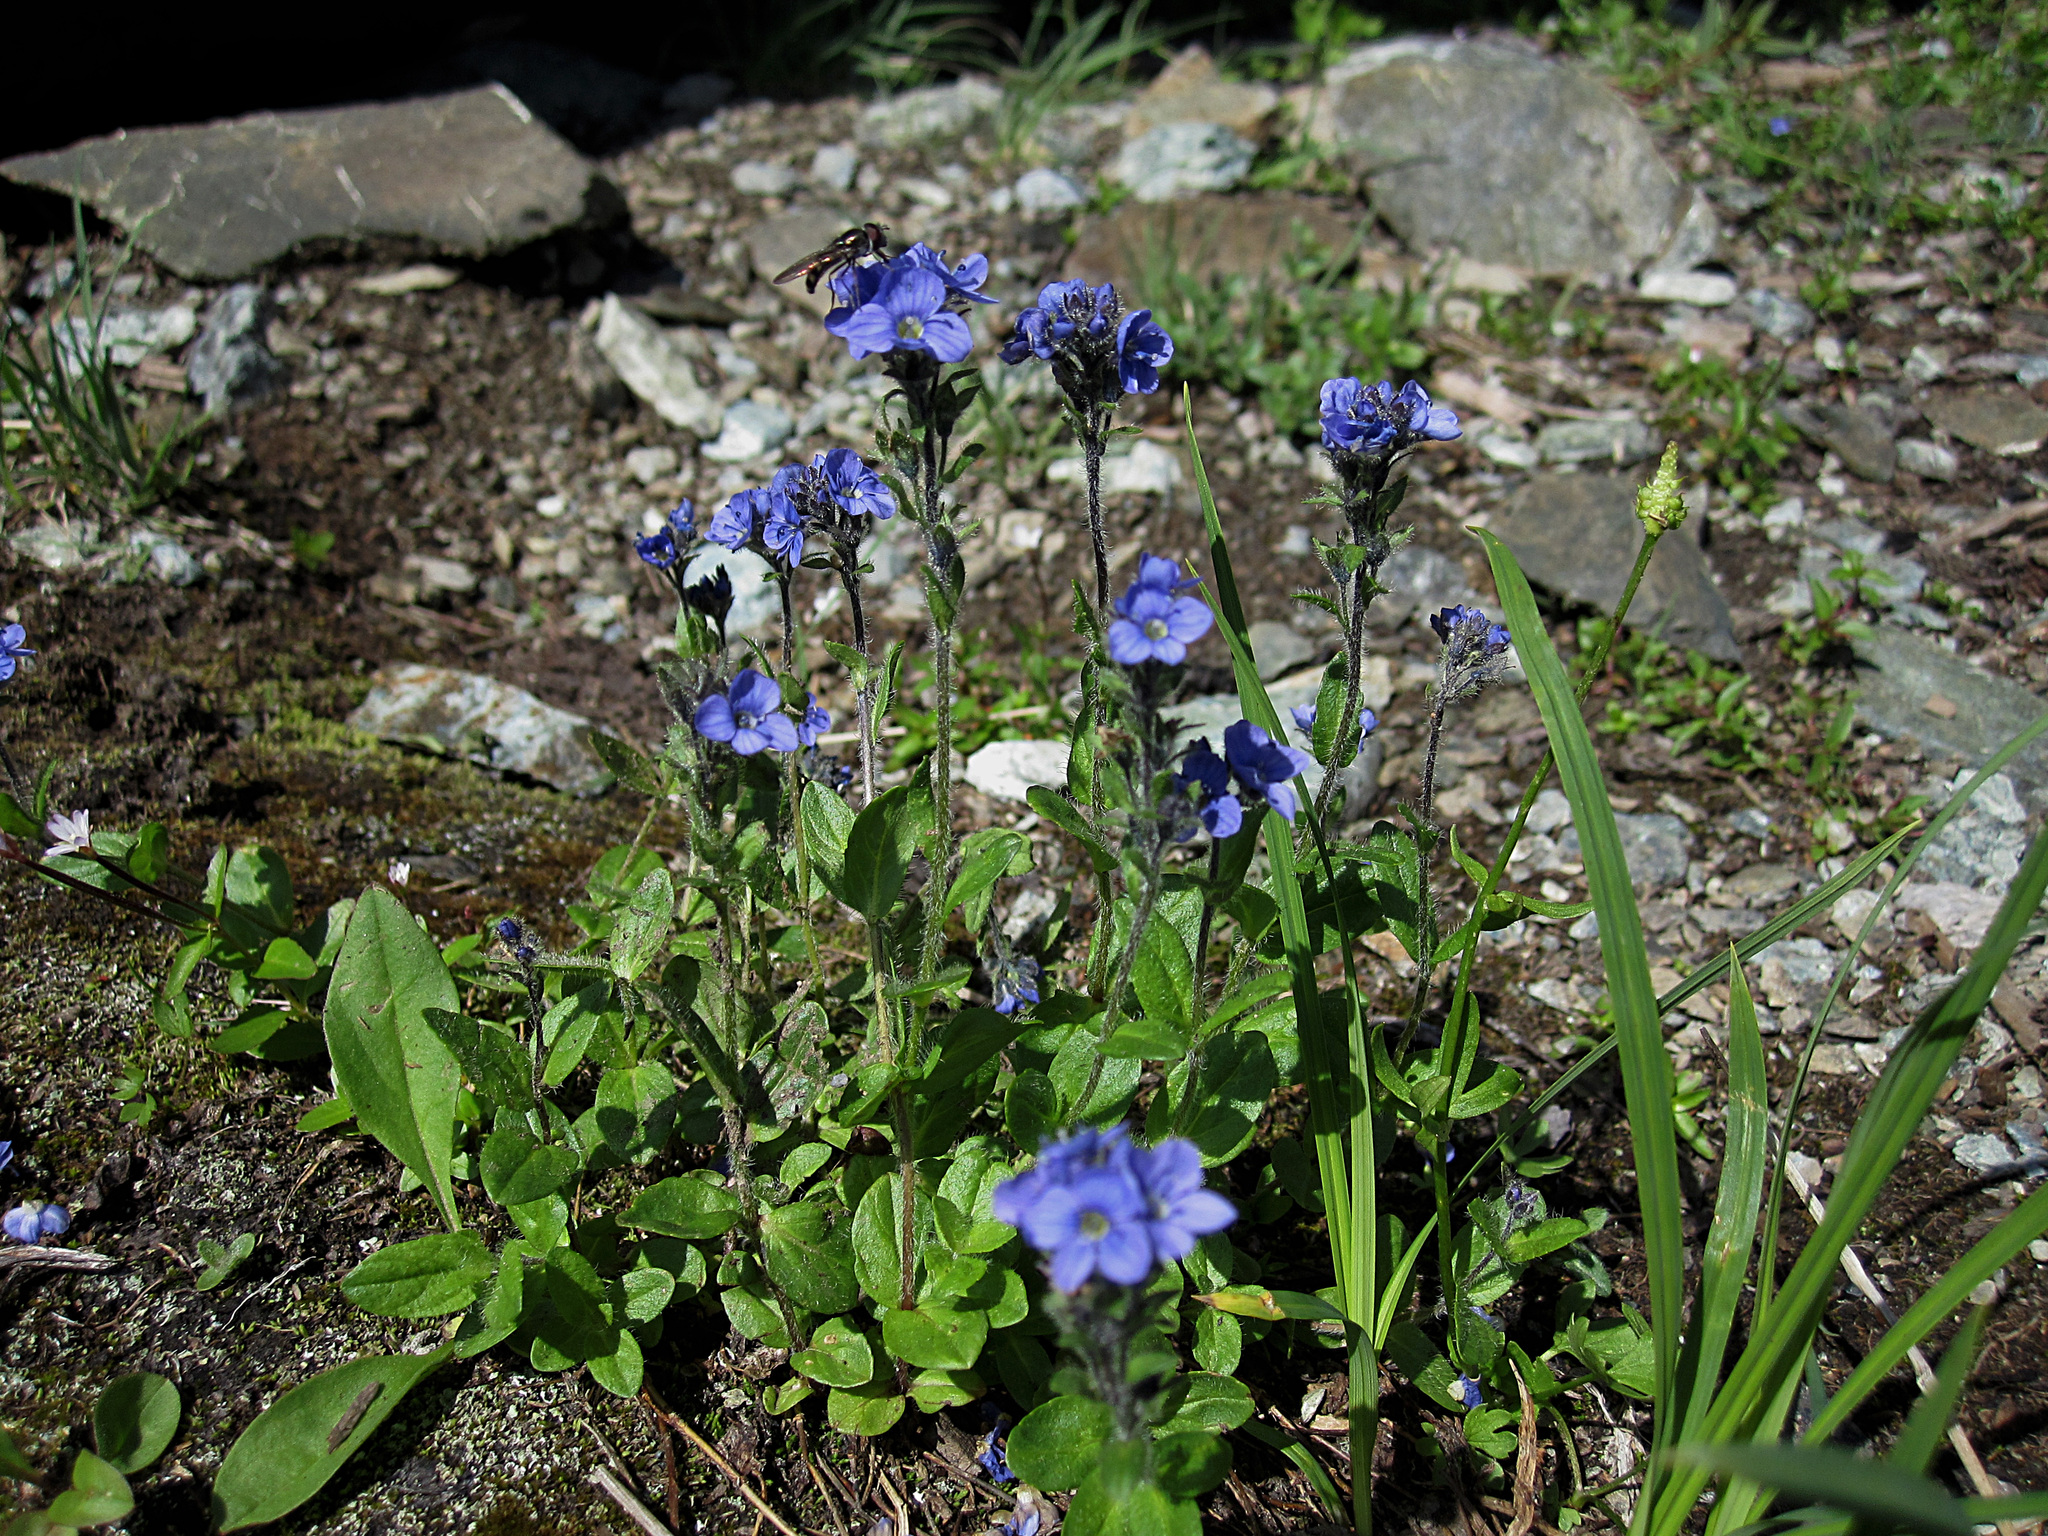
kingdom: Plantae
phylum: Tracheophyta
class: Magnoliopsida
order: Lamiales
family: Plantaginaceae
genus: Veronica
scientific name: Veronica wormskjoldii
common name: American alpine speedwell
